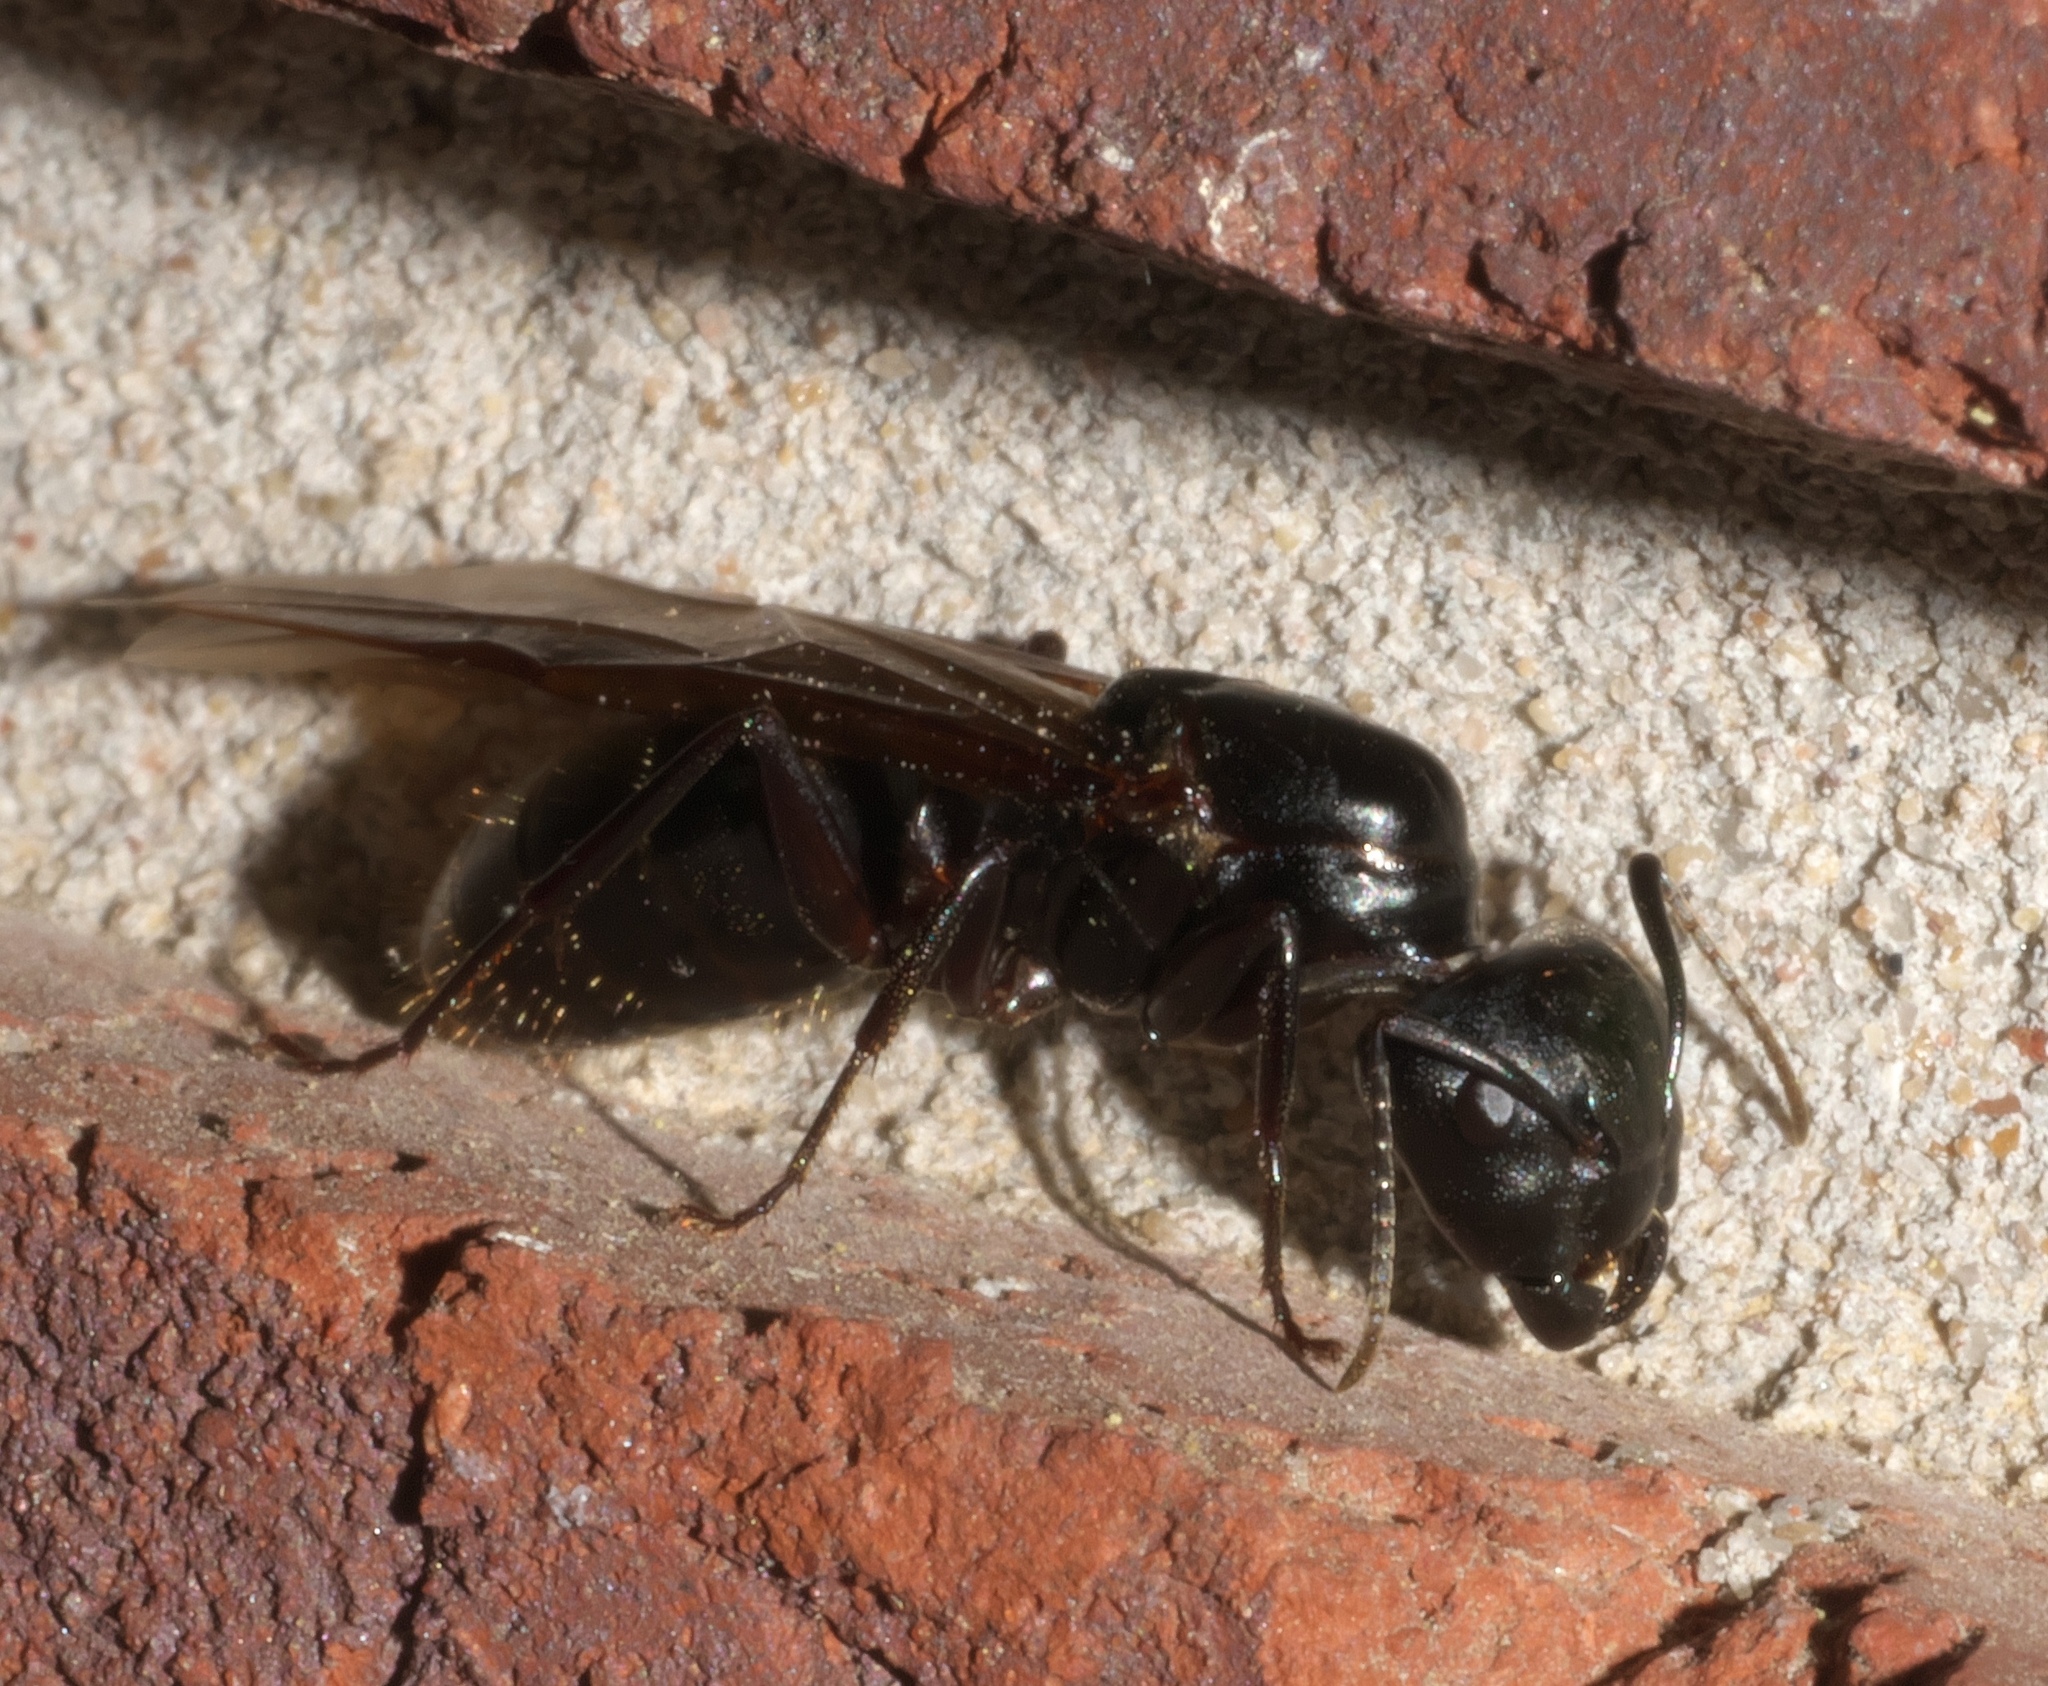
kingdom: Animalia
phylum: Arthropoda
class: Insecta
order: Hymenoptera
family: Formicidae
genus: Camponotus
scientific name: Camponotus pennsylvanicus
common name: Black carpenter ant
